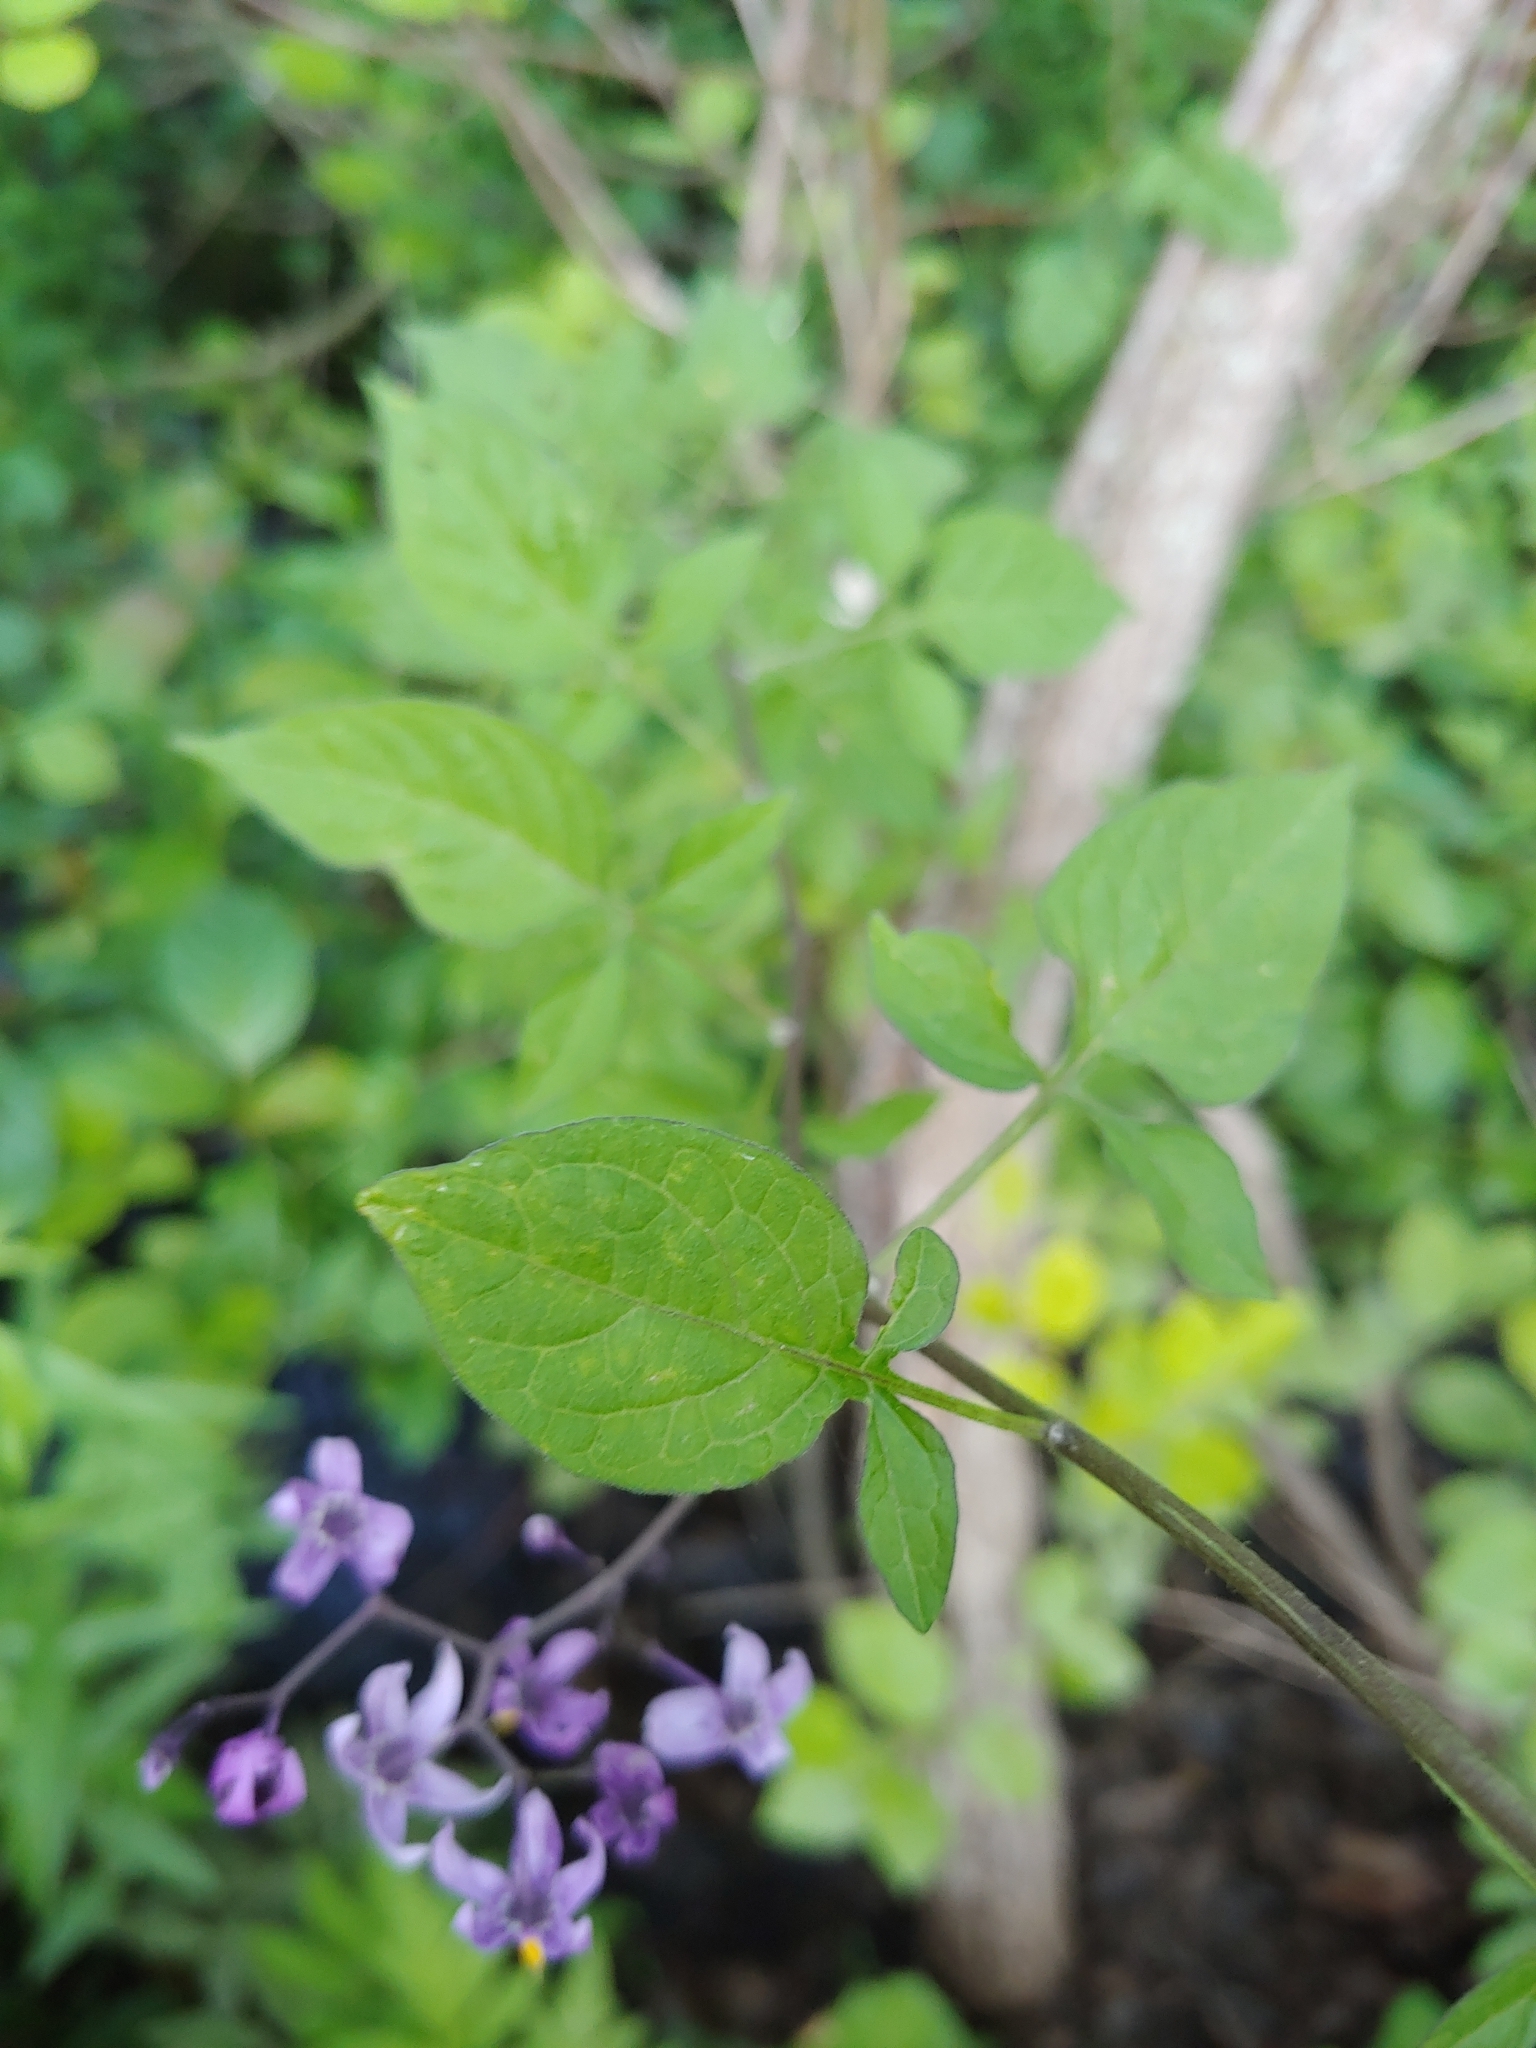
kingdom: Plantae
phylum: Tracheophyta
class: Magnoliopsida
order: Solanales
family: Solanaceae
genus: Solanum
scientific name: Solanum dulcamara
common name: Climbing nightshade
